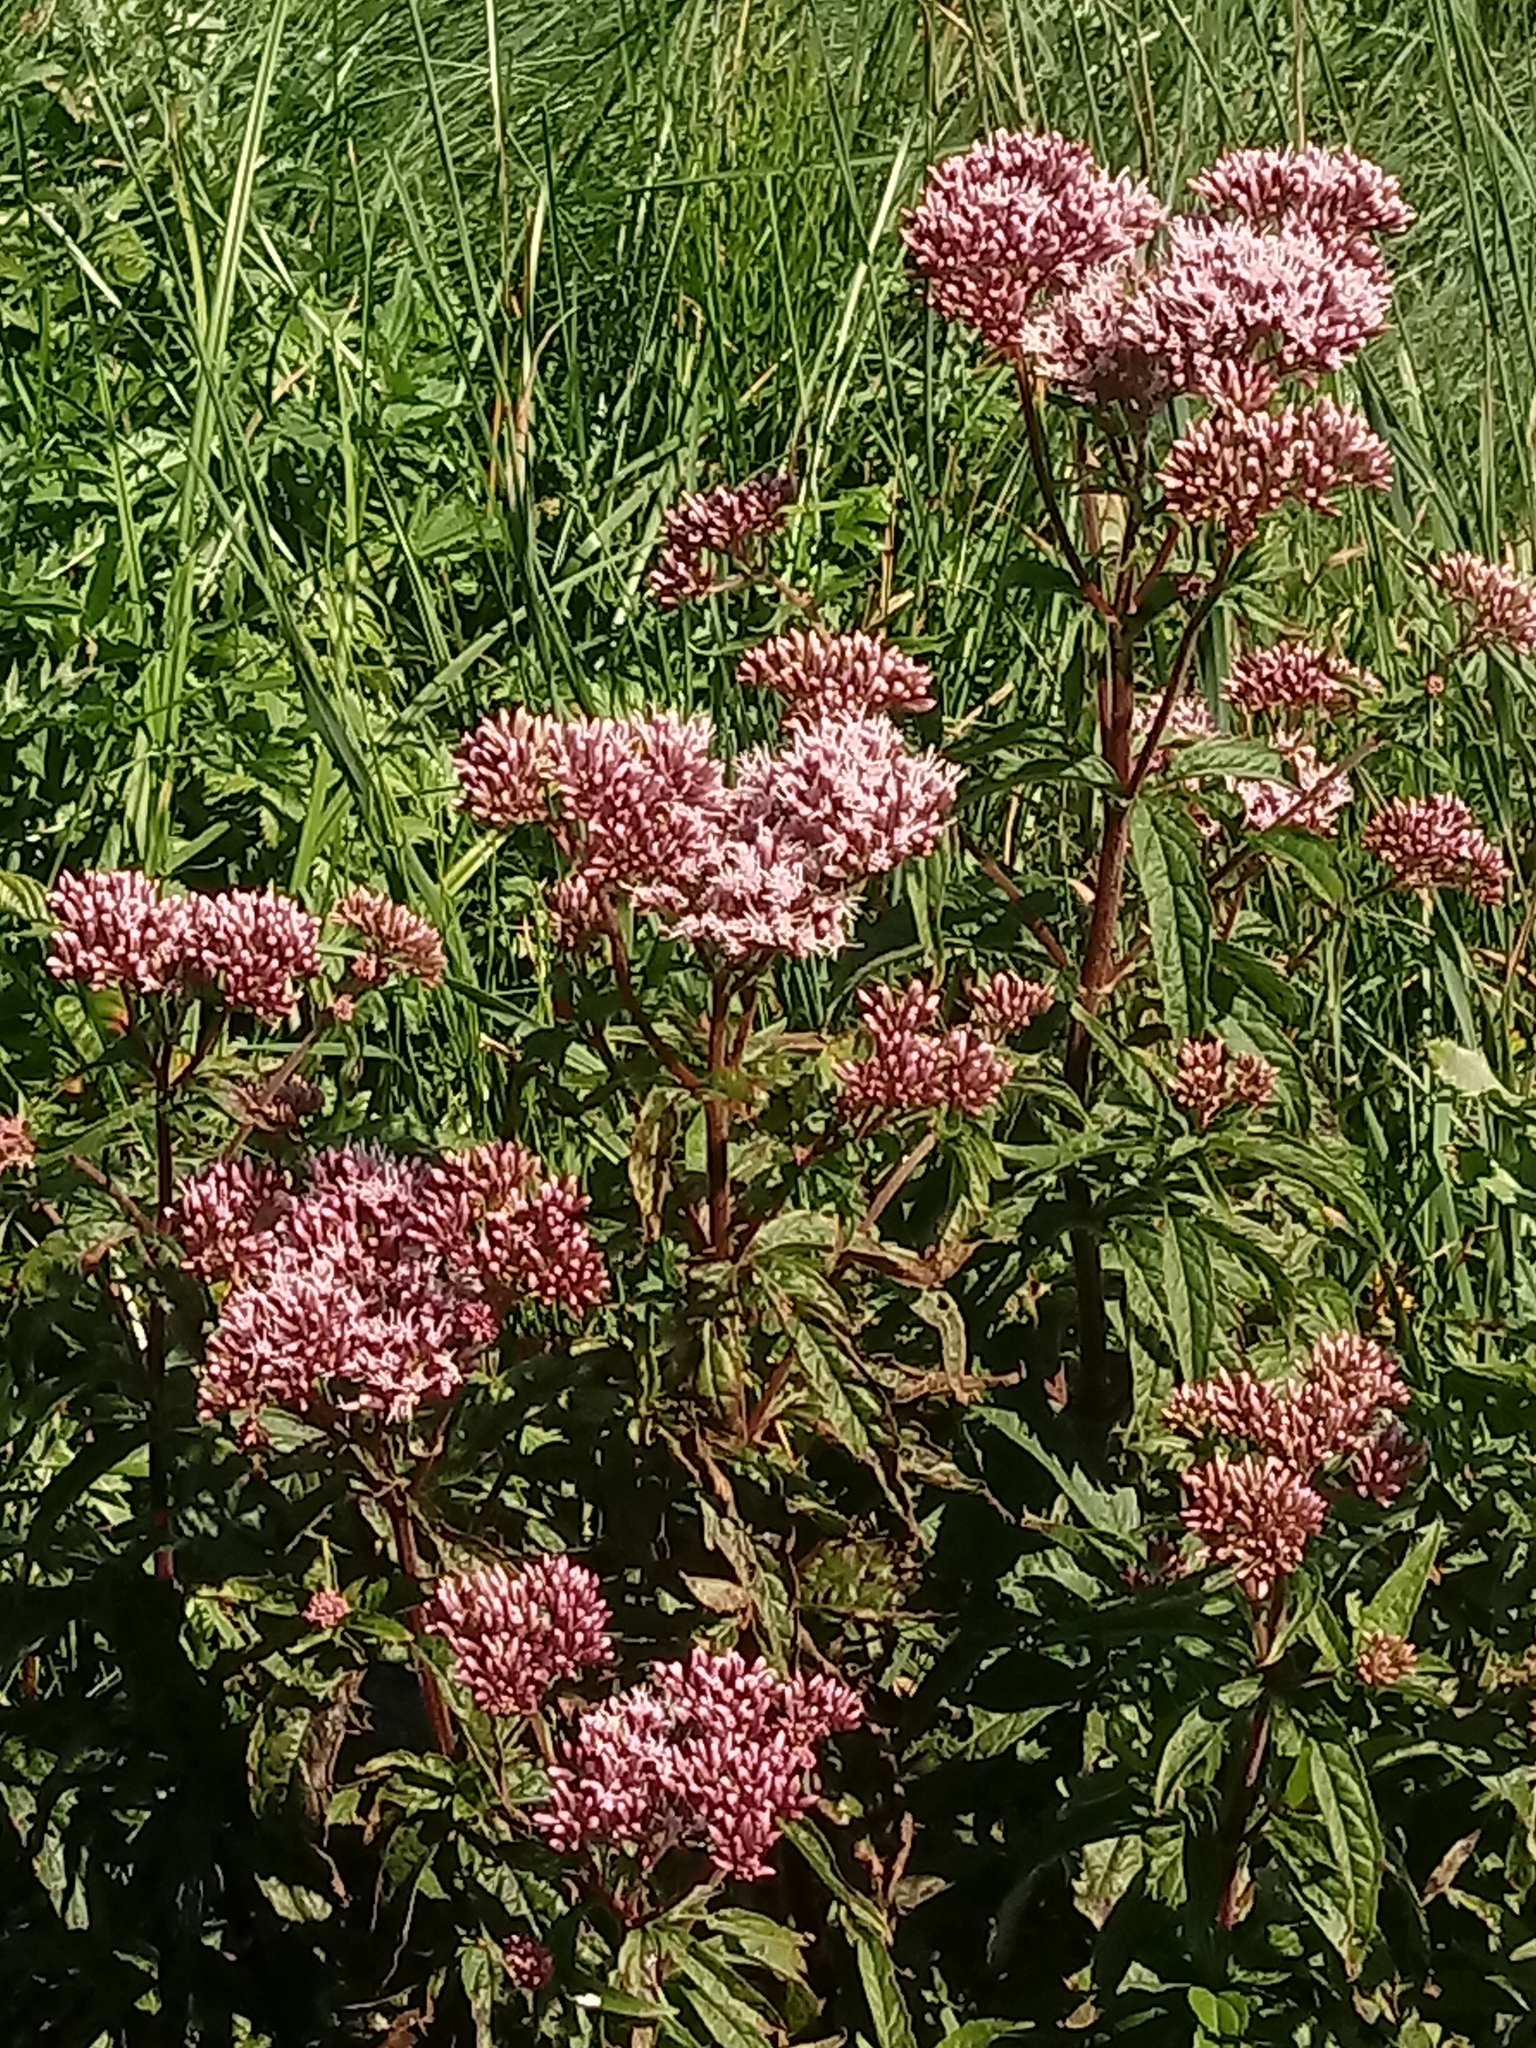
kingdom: Plantae
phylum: Tracheophyta
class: Magnoliopsida
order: Asterales
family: Asteraceae
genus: Eupatorium
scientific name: Eupatorium cannabinum
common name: Hemp-agrimony
